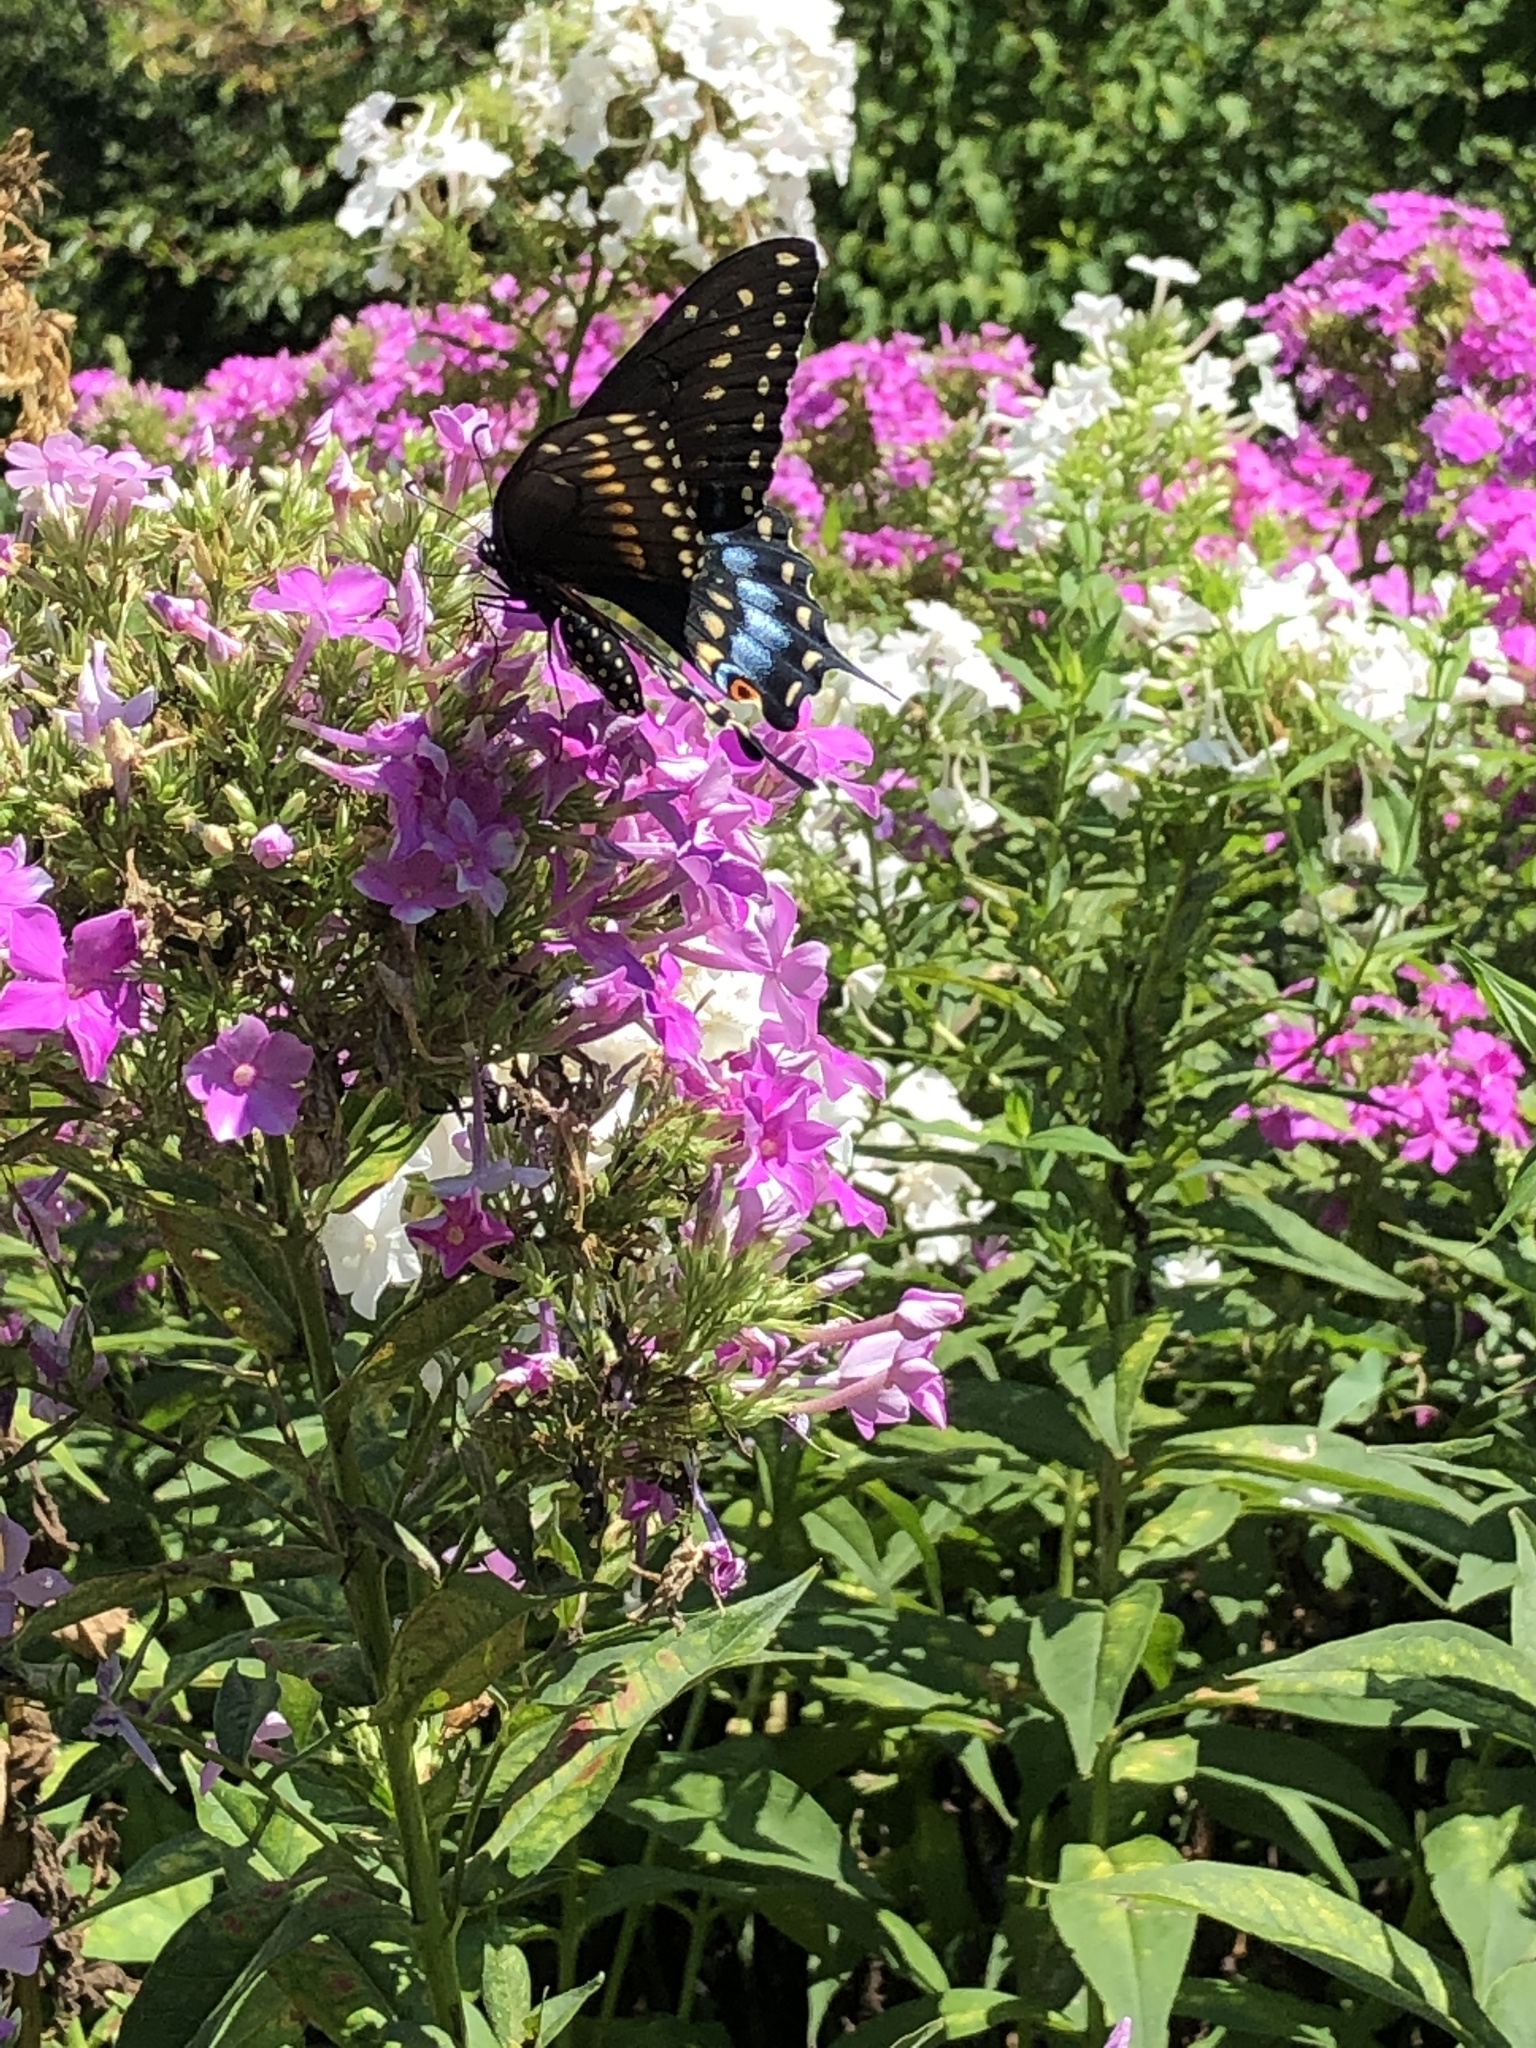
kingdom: Animalia
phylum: Arthropoda
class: Insecta
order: Lepidoptera
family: Papilionidae
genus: Papilio
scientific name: Papilio polyxenes
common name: Black swallowtail
